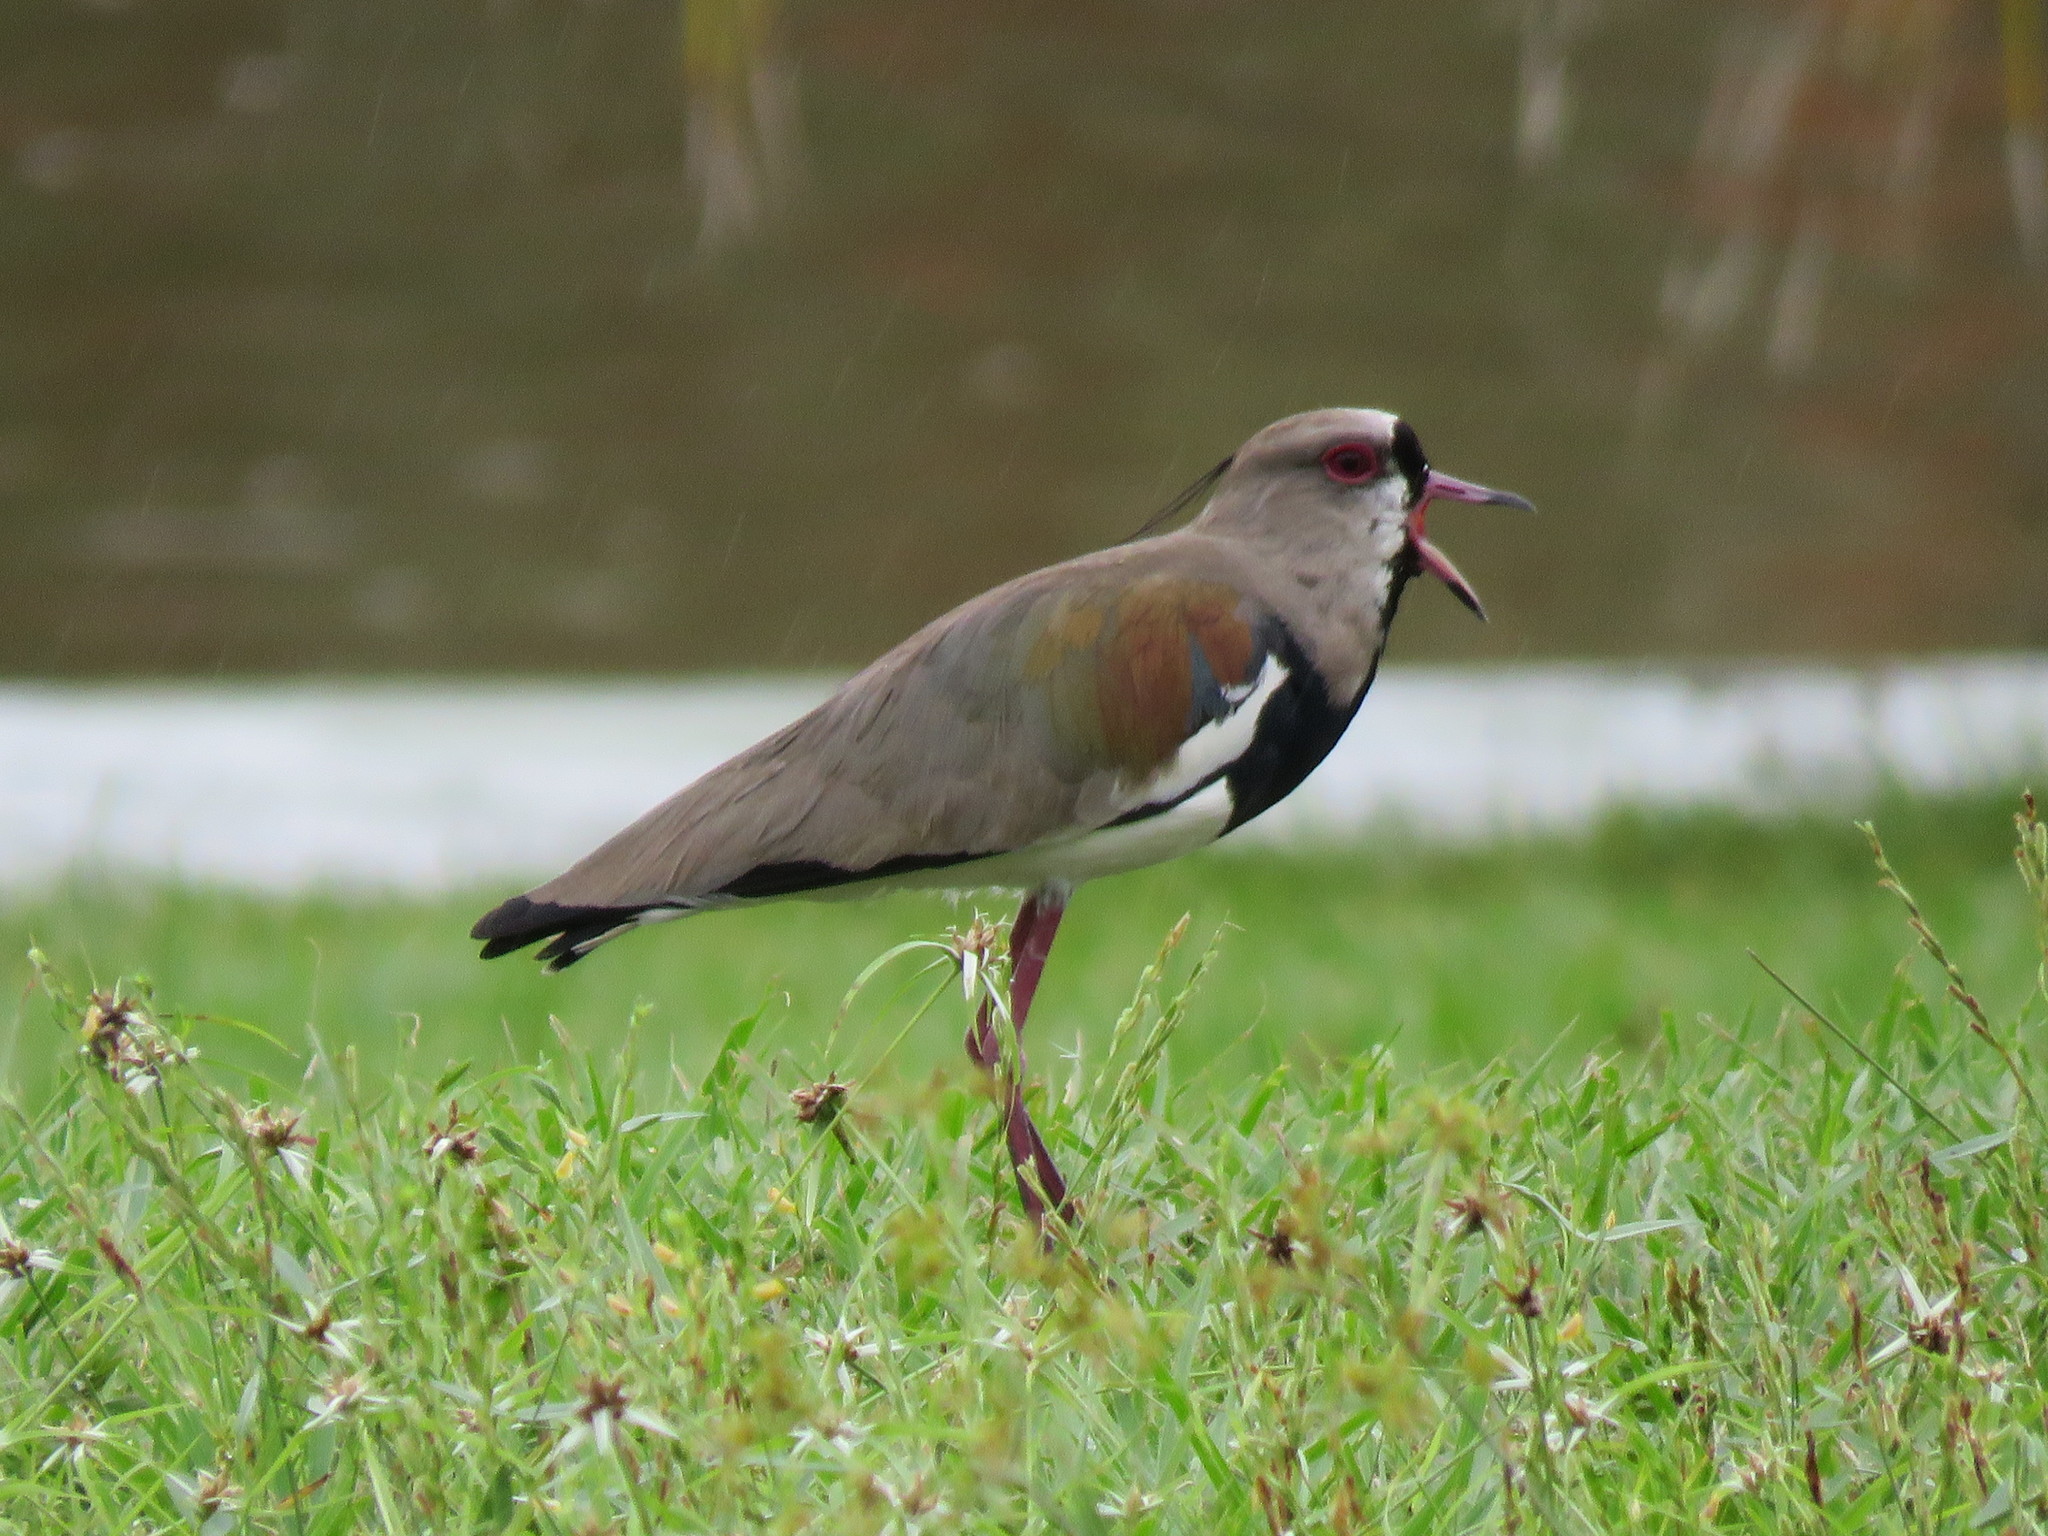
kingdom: Animalia
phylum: Chordata
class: Aves
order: Charadriiformes
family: Charadriidae
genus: Vanellus
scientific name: Vanellus chilensis
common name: Southern lapwing
